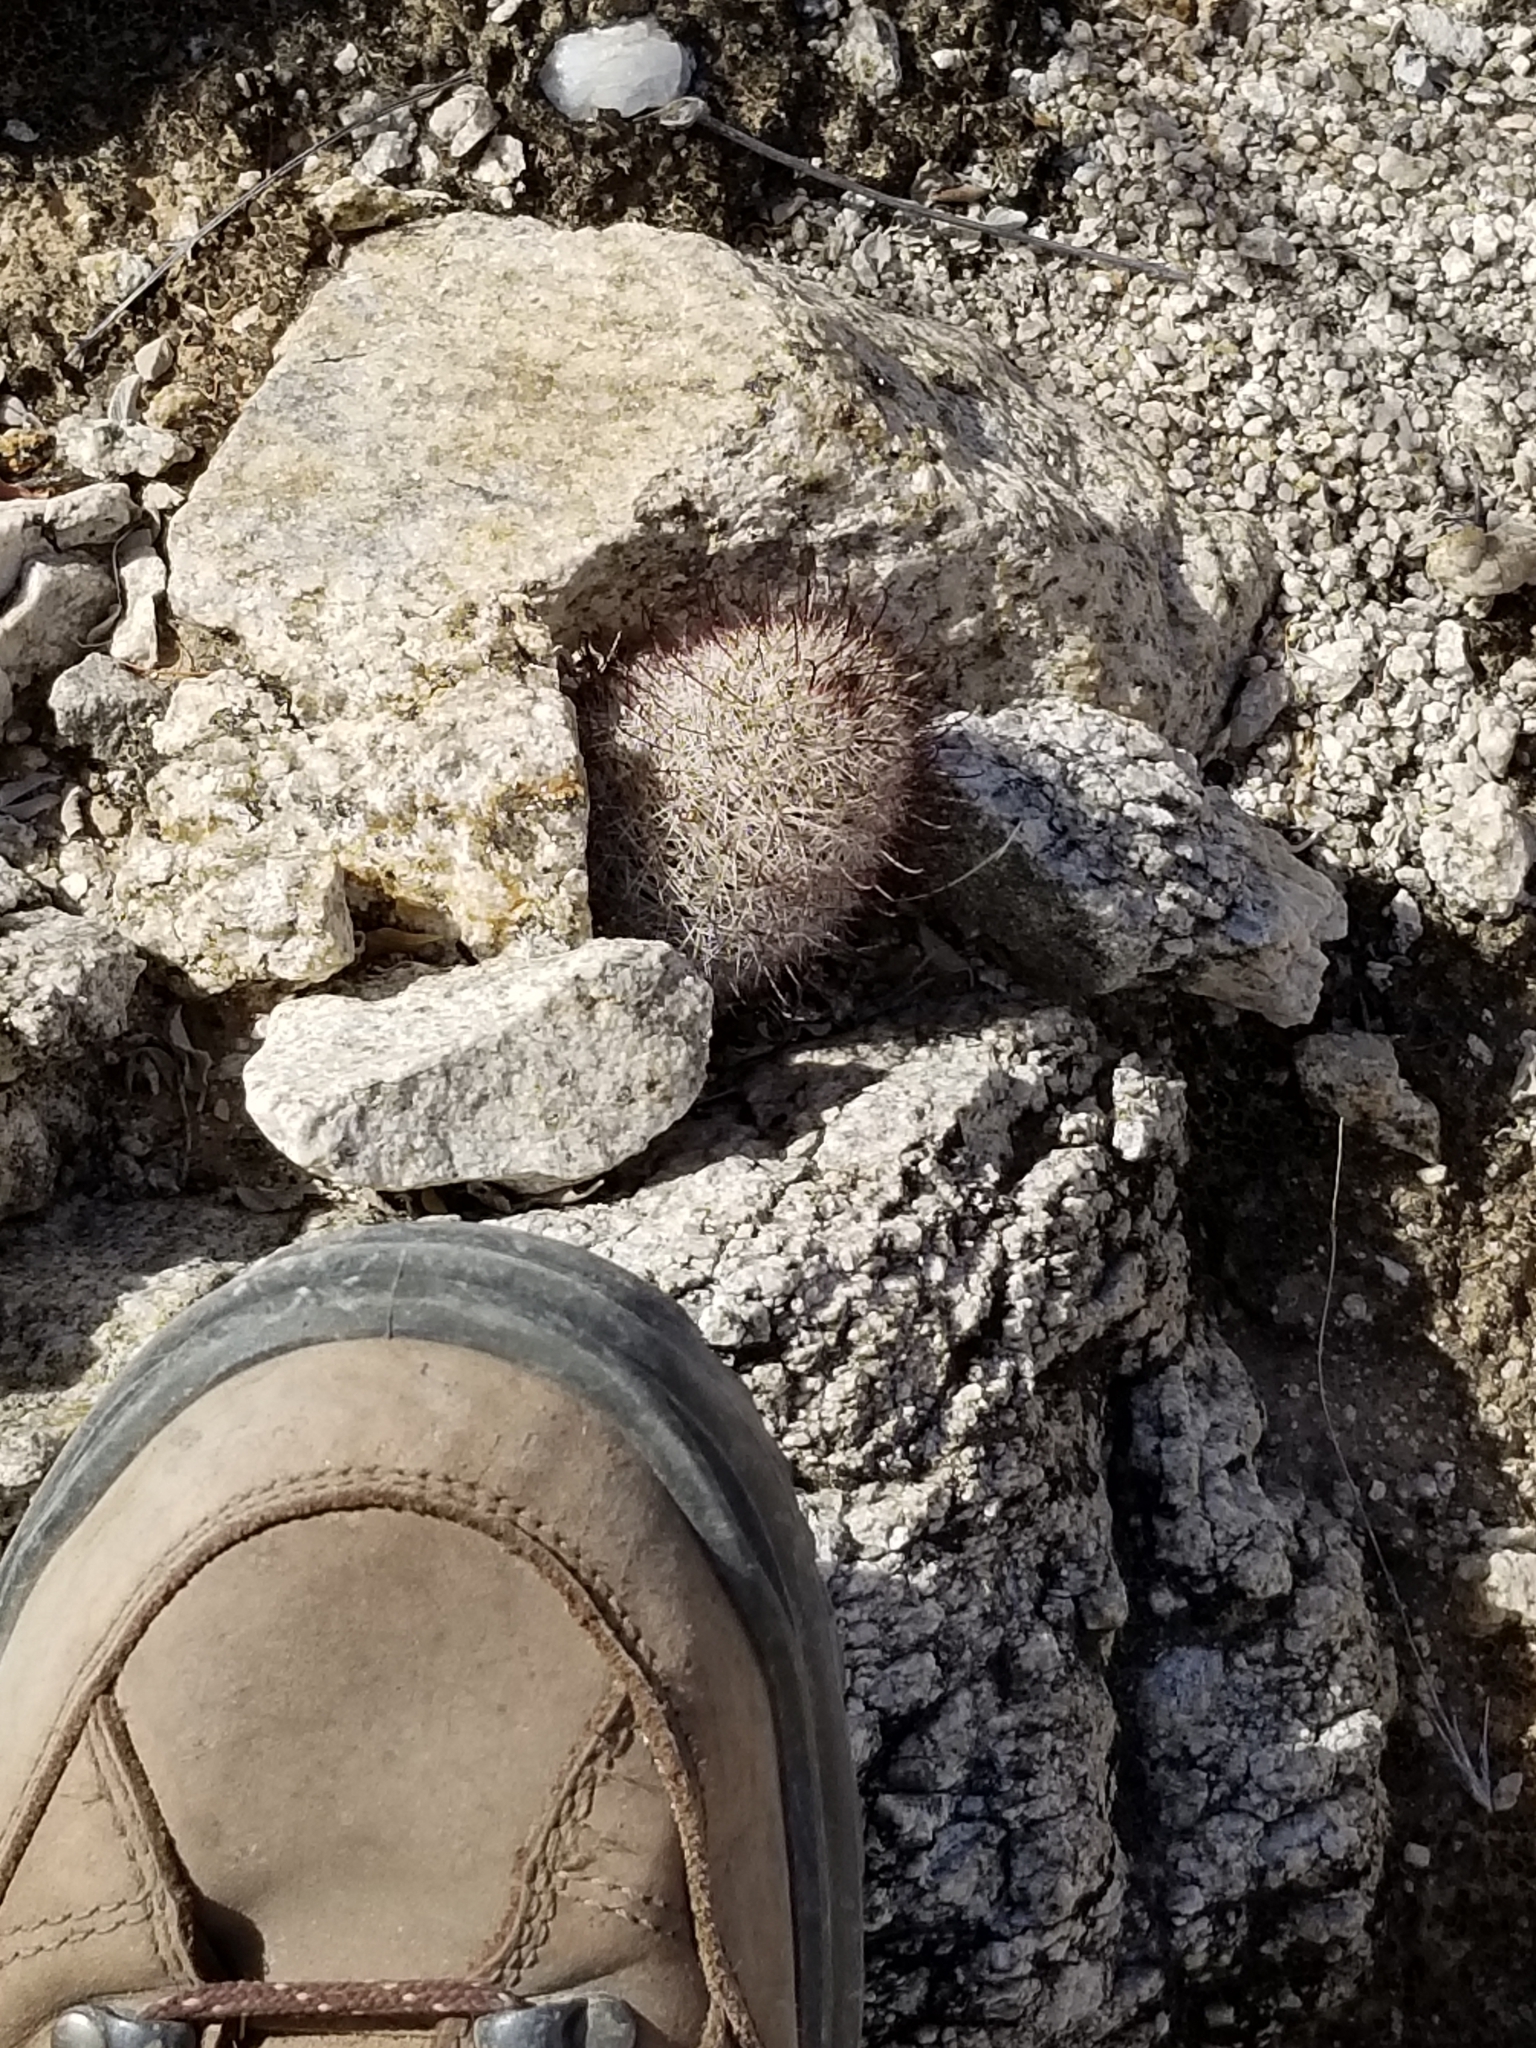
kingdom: Plantae
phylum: Tracheophyta
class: Magnoliopsida
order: Caryophyllales
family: Cactaceae
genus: Cochemiea
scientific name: Cochemiea tetrancistra
